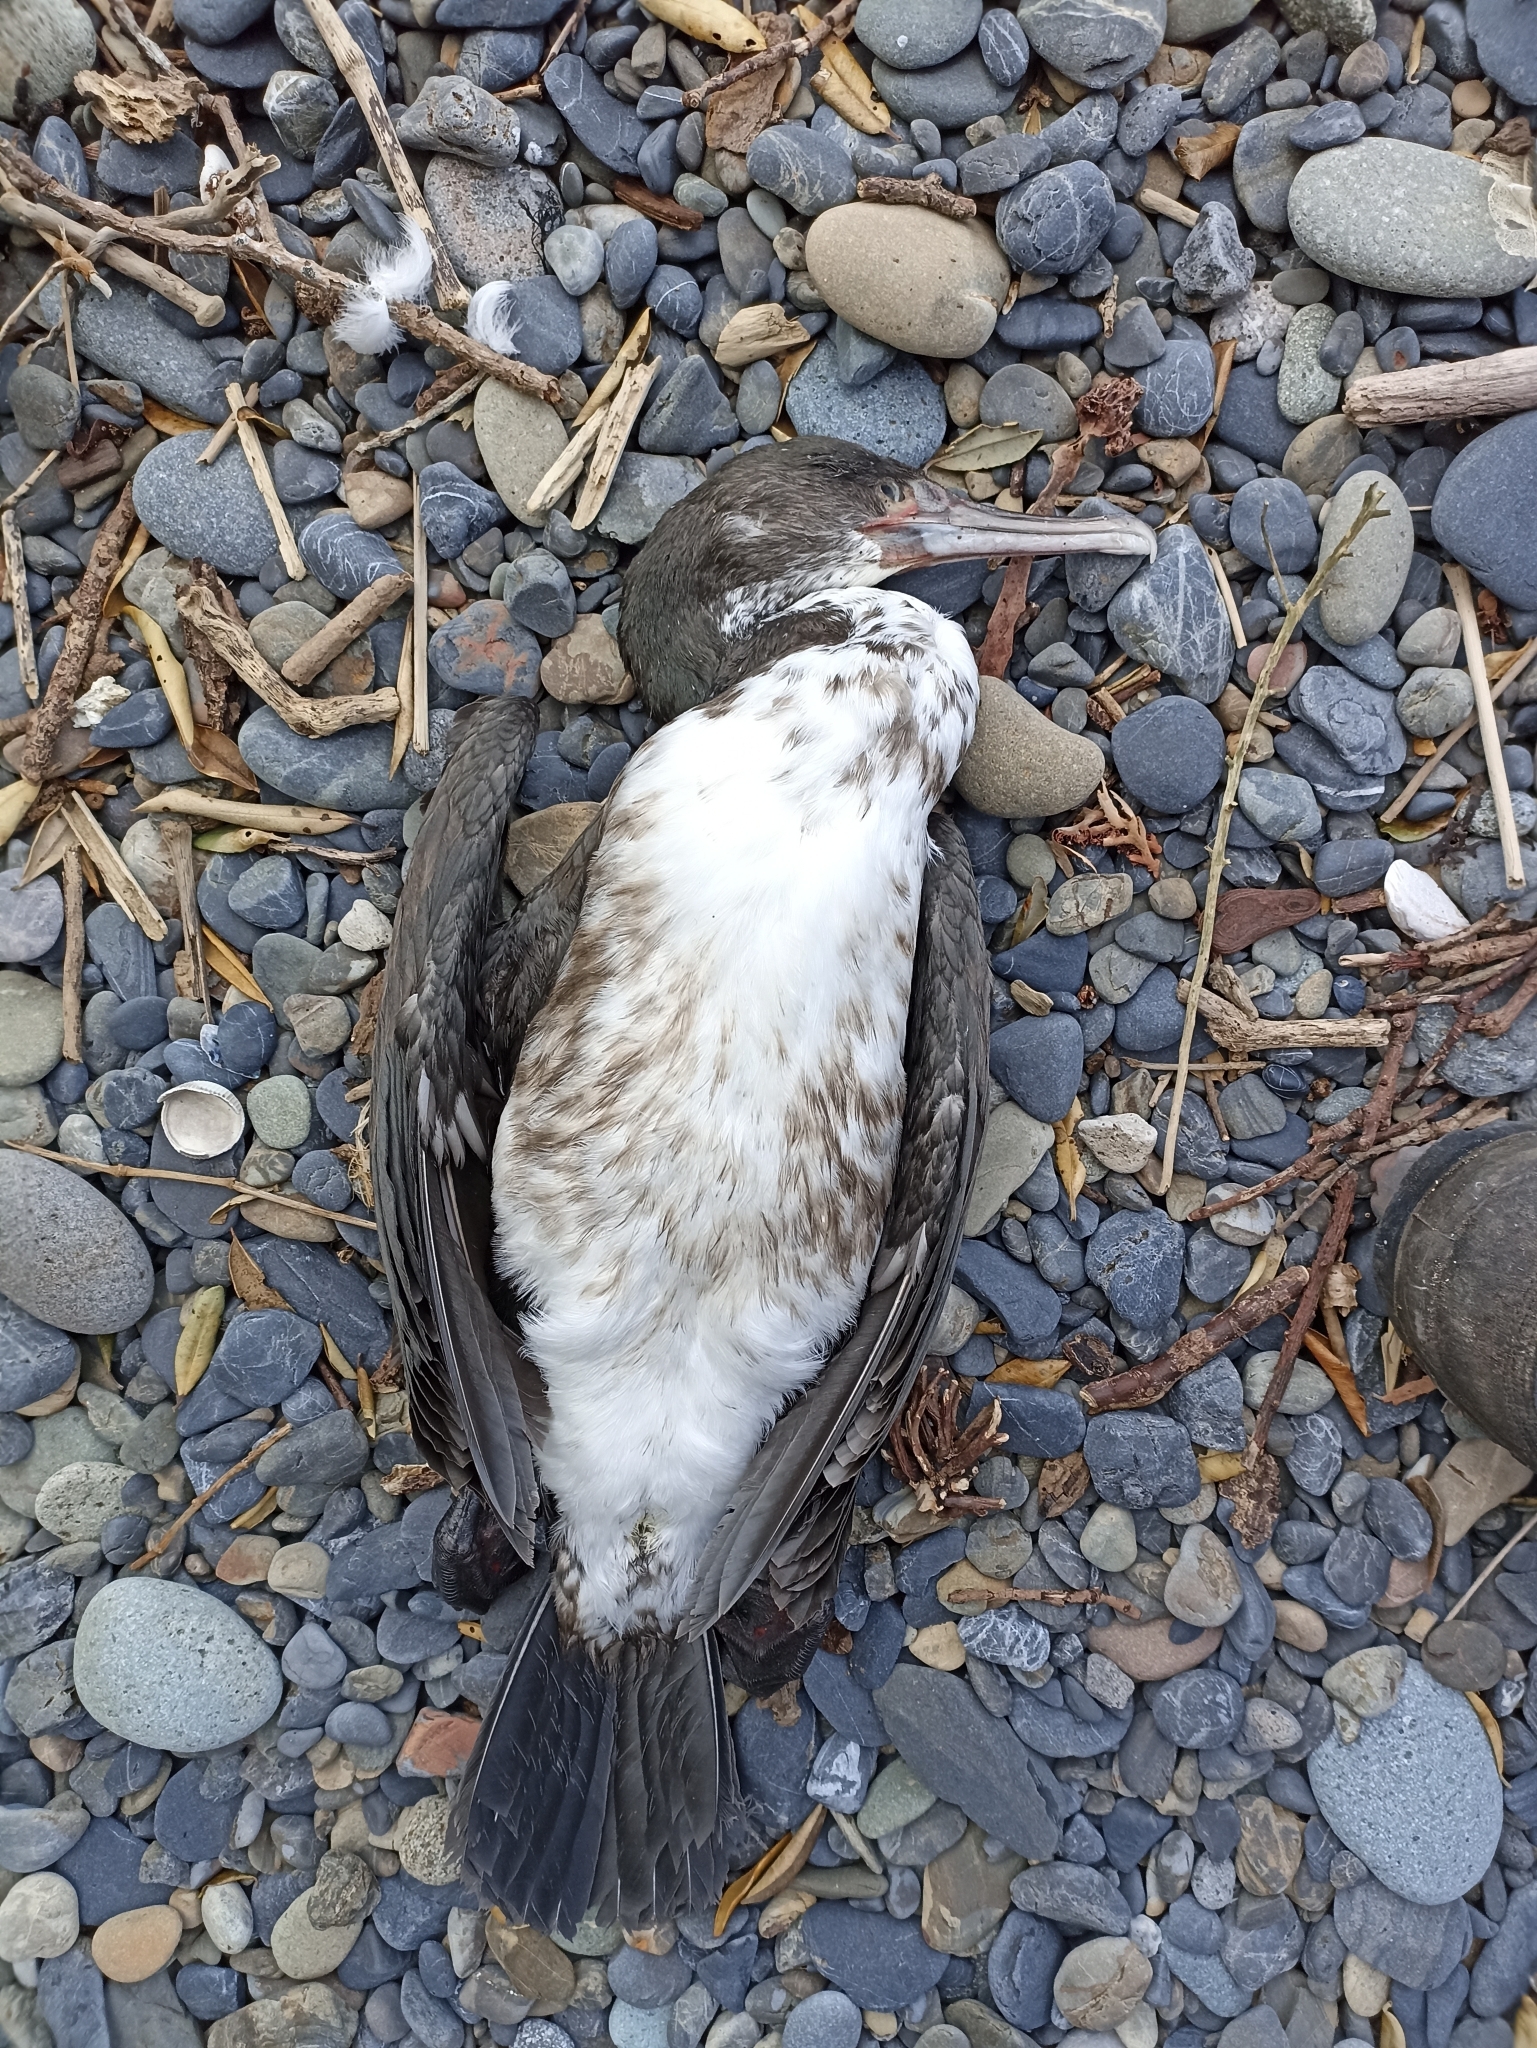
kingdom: Animalia
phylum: Chordata
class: Aves
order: Suliformes
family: Phalacrocoracidae
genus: Phalacrocorax
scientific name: Phalacrocorax varius
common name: Pied cormorant
